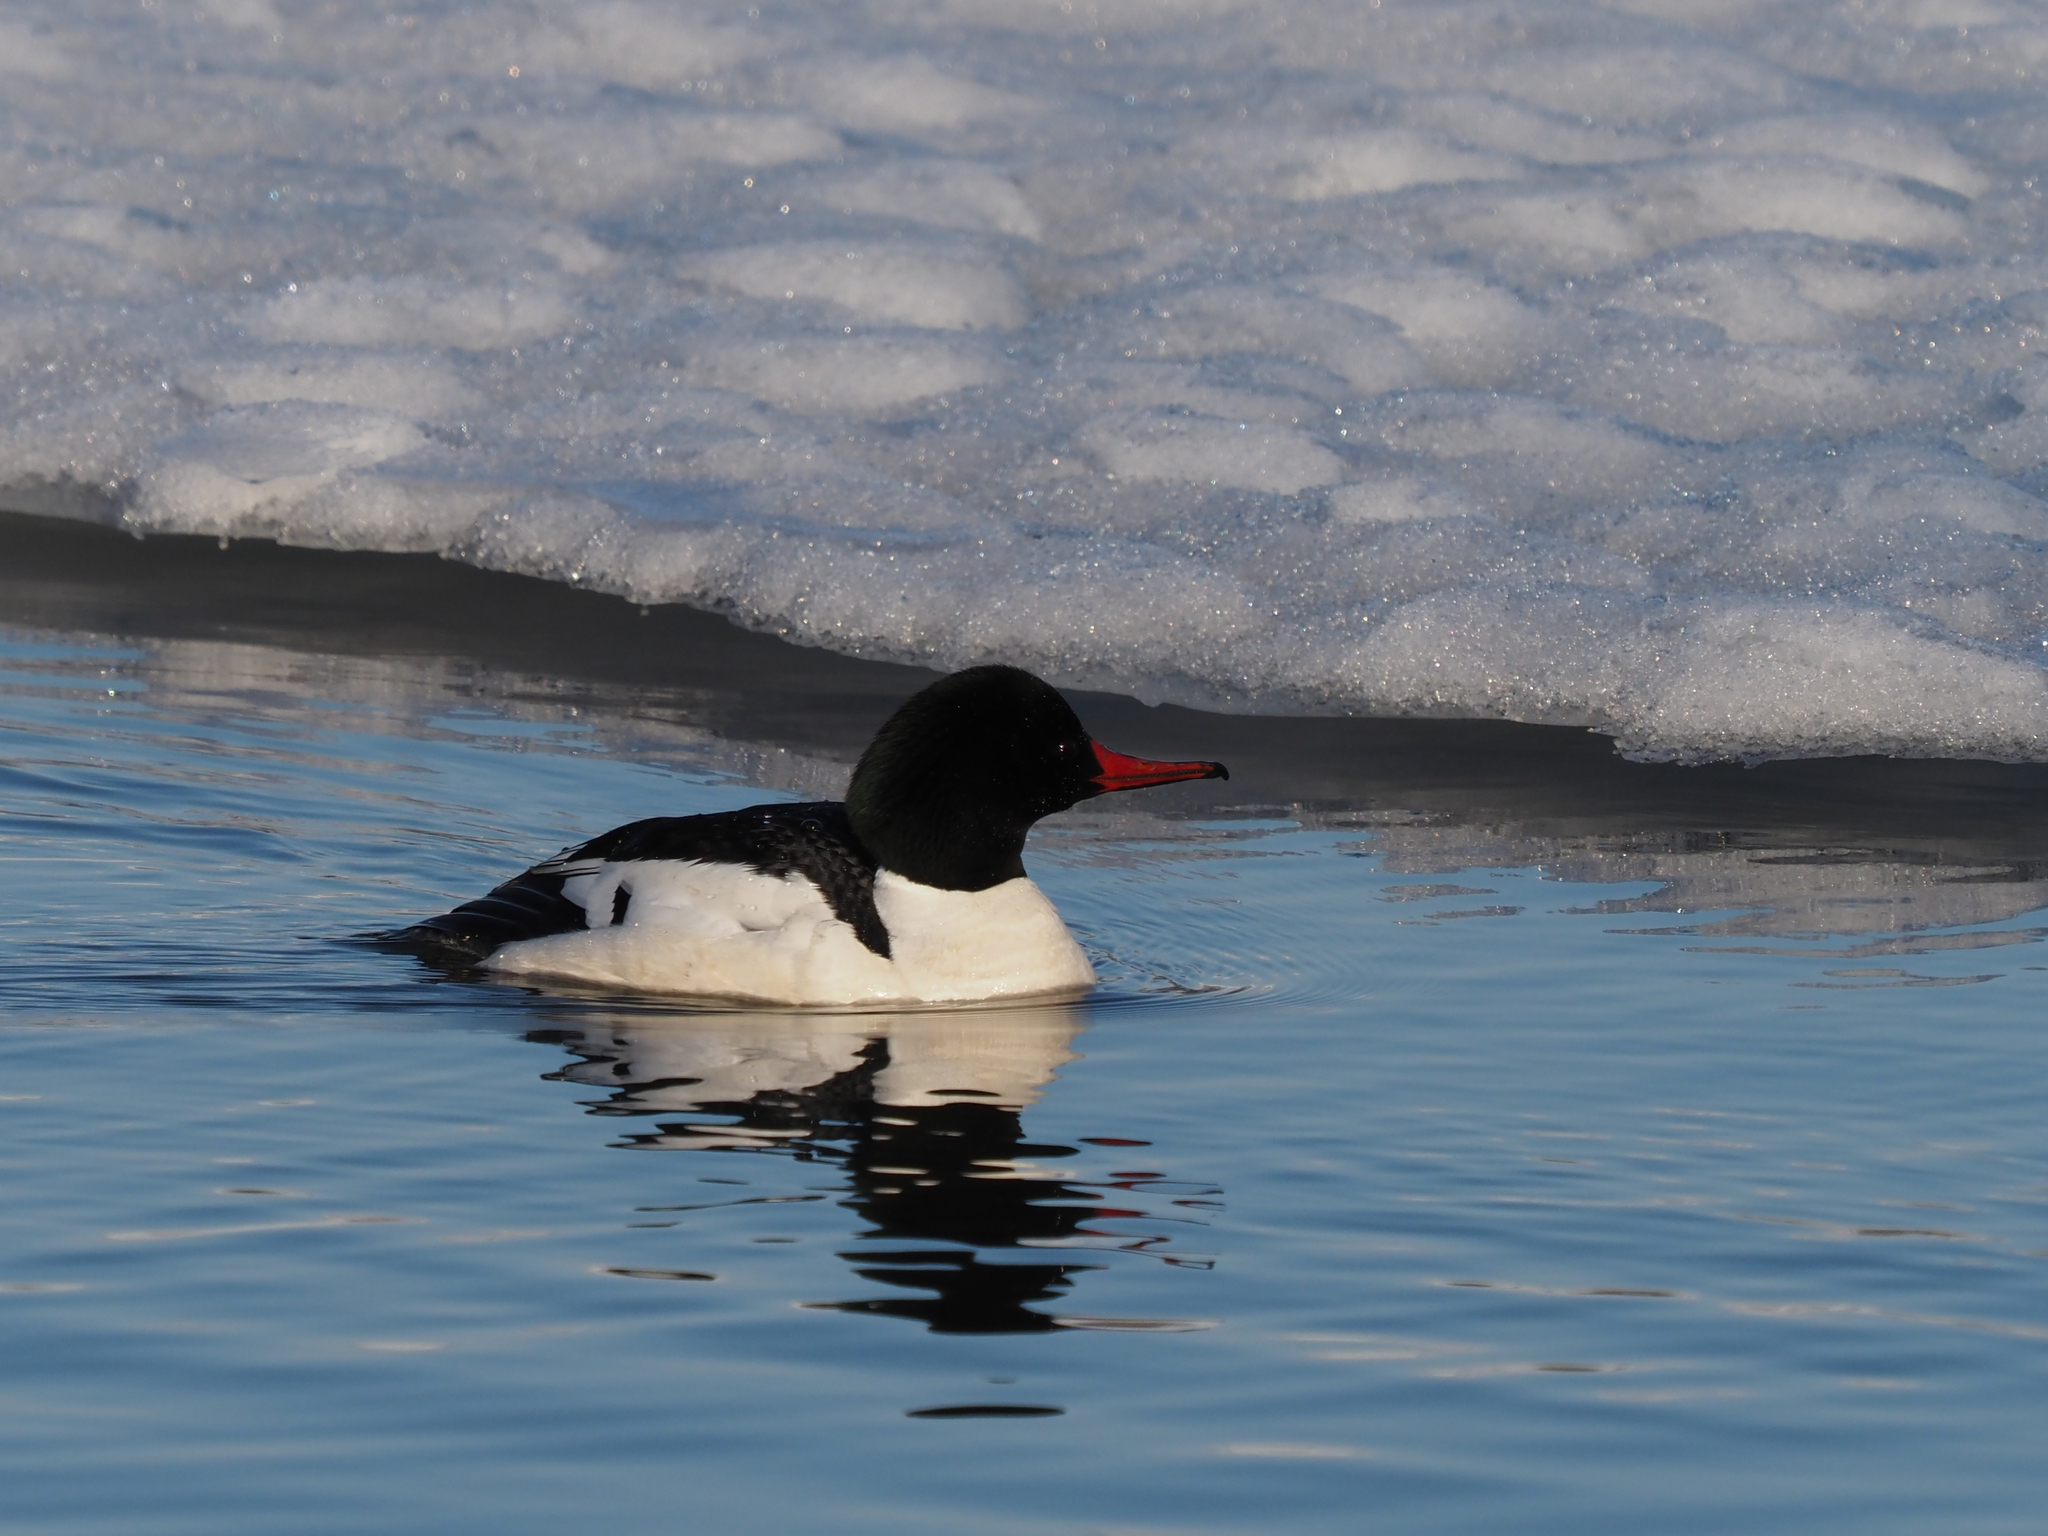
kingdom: Animalia
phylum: Chordata
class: Aves
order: Anseriformes
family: Anatidae
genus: Mergus
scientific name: Mergus merganser
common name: Common merganser
